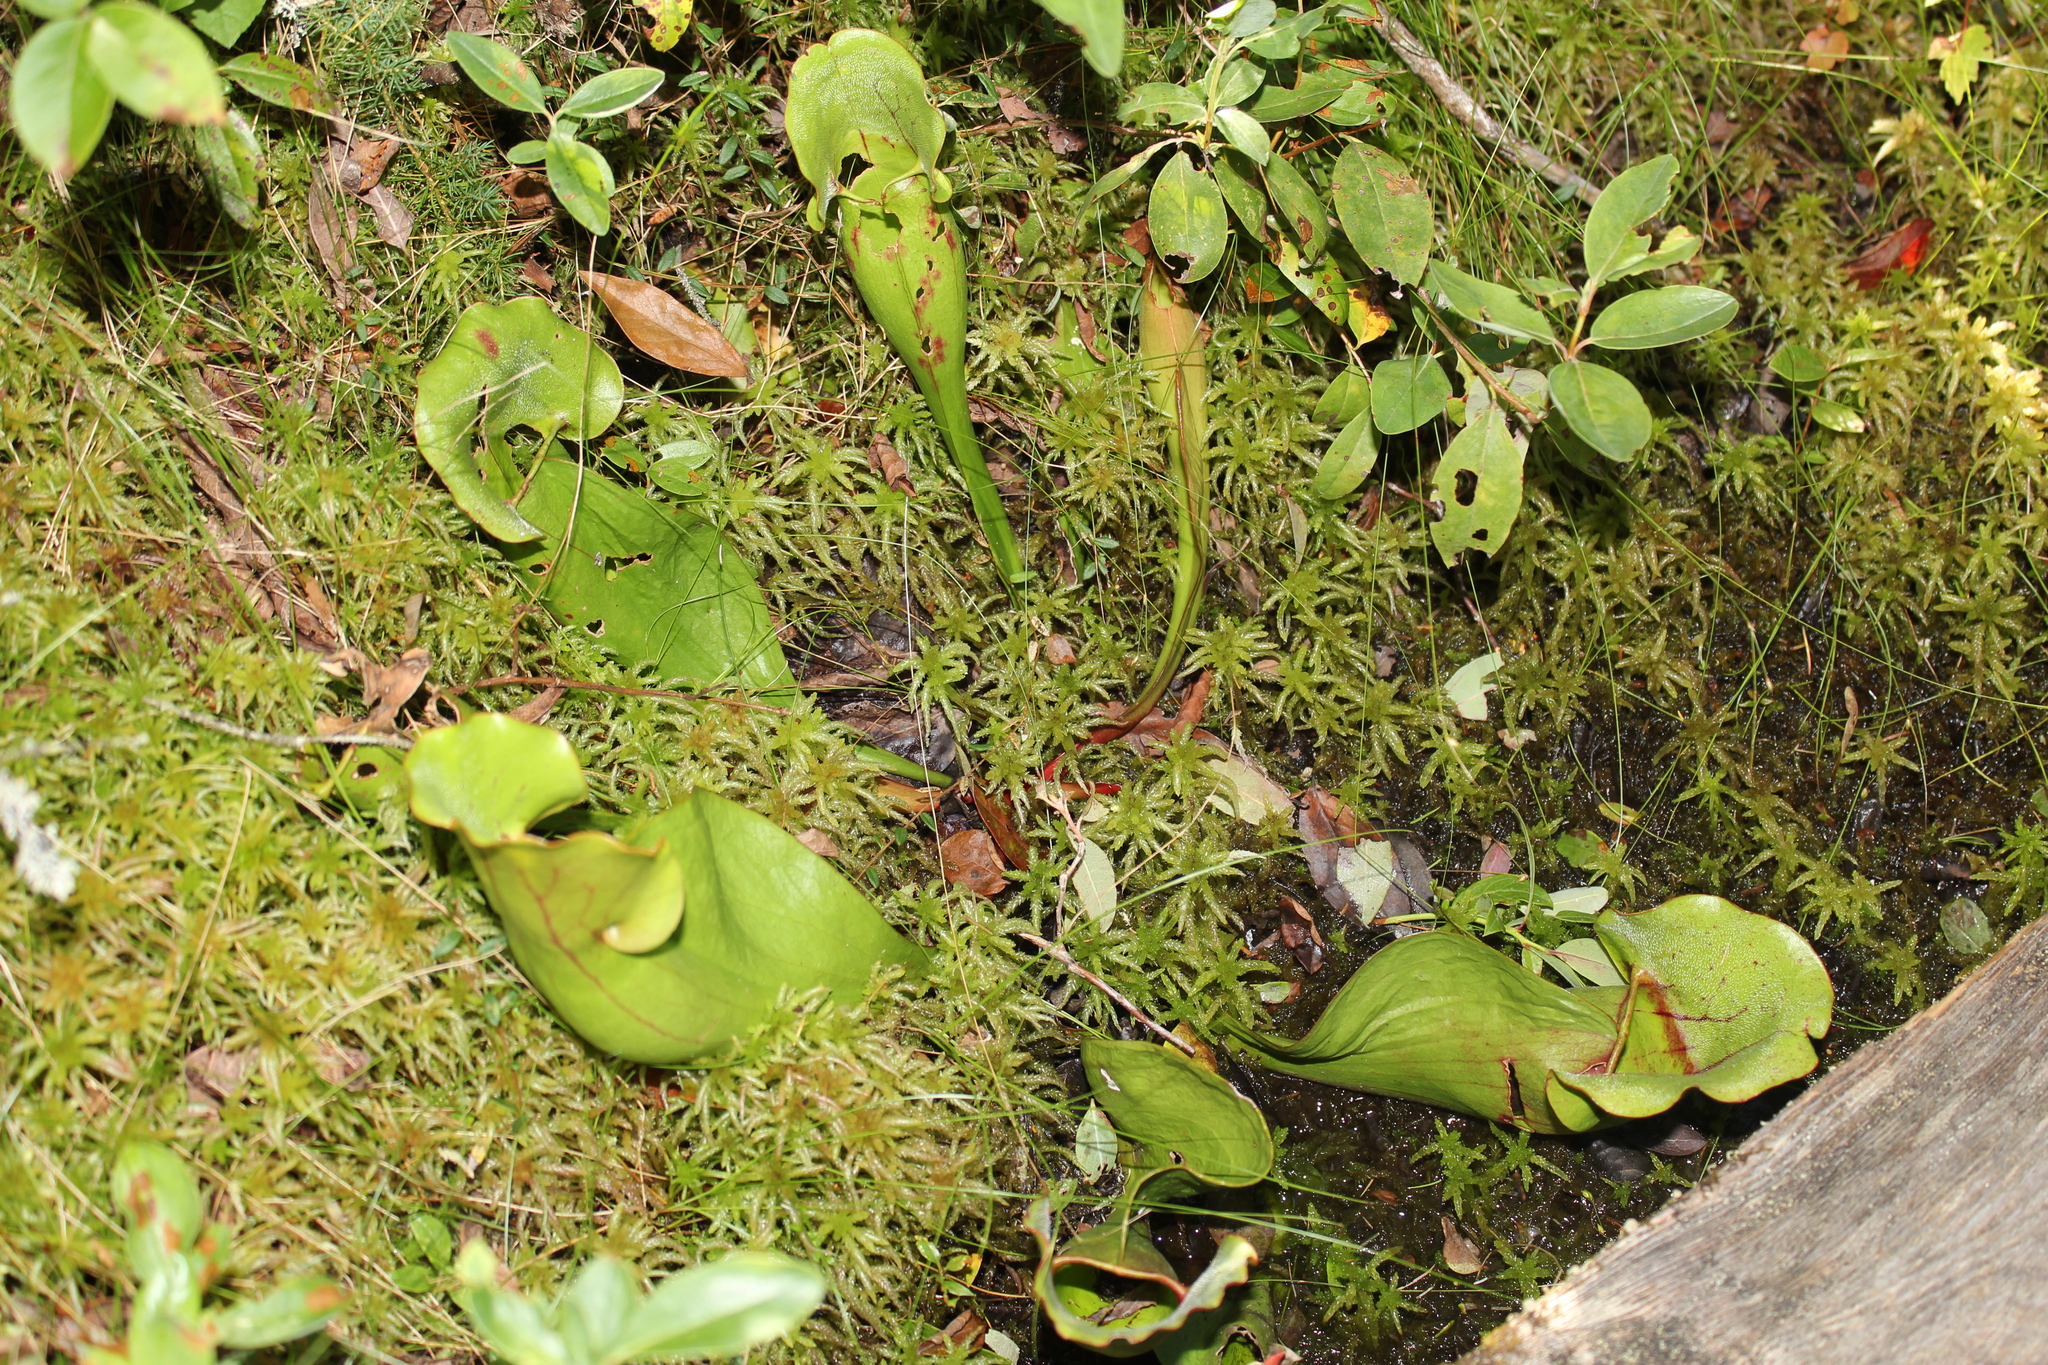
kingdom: Plantae
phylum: Tracheophyta
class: Magnoliopsida
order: Ericales
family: Sarraceniaceae
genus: Sarracenia
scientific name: Sarracenia purpurea
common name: Pitcherplant
